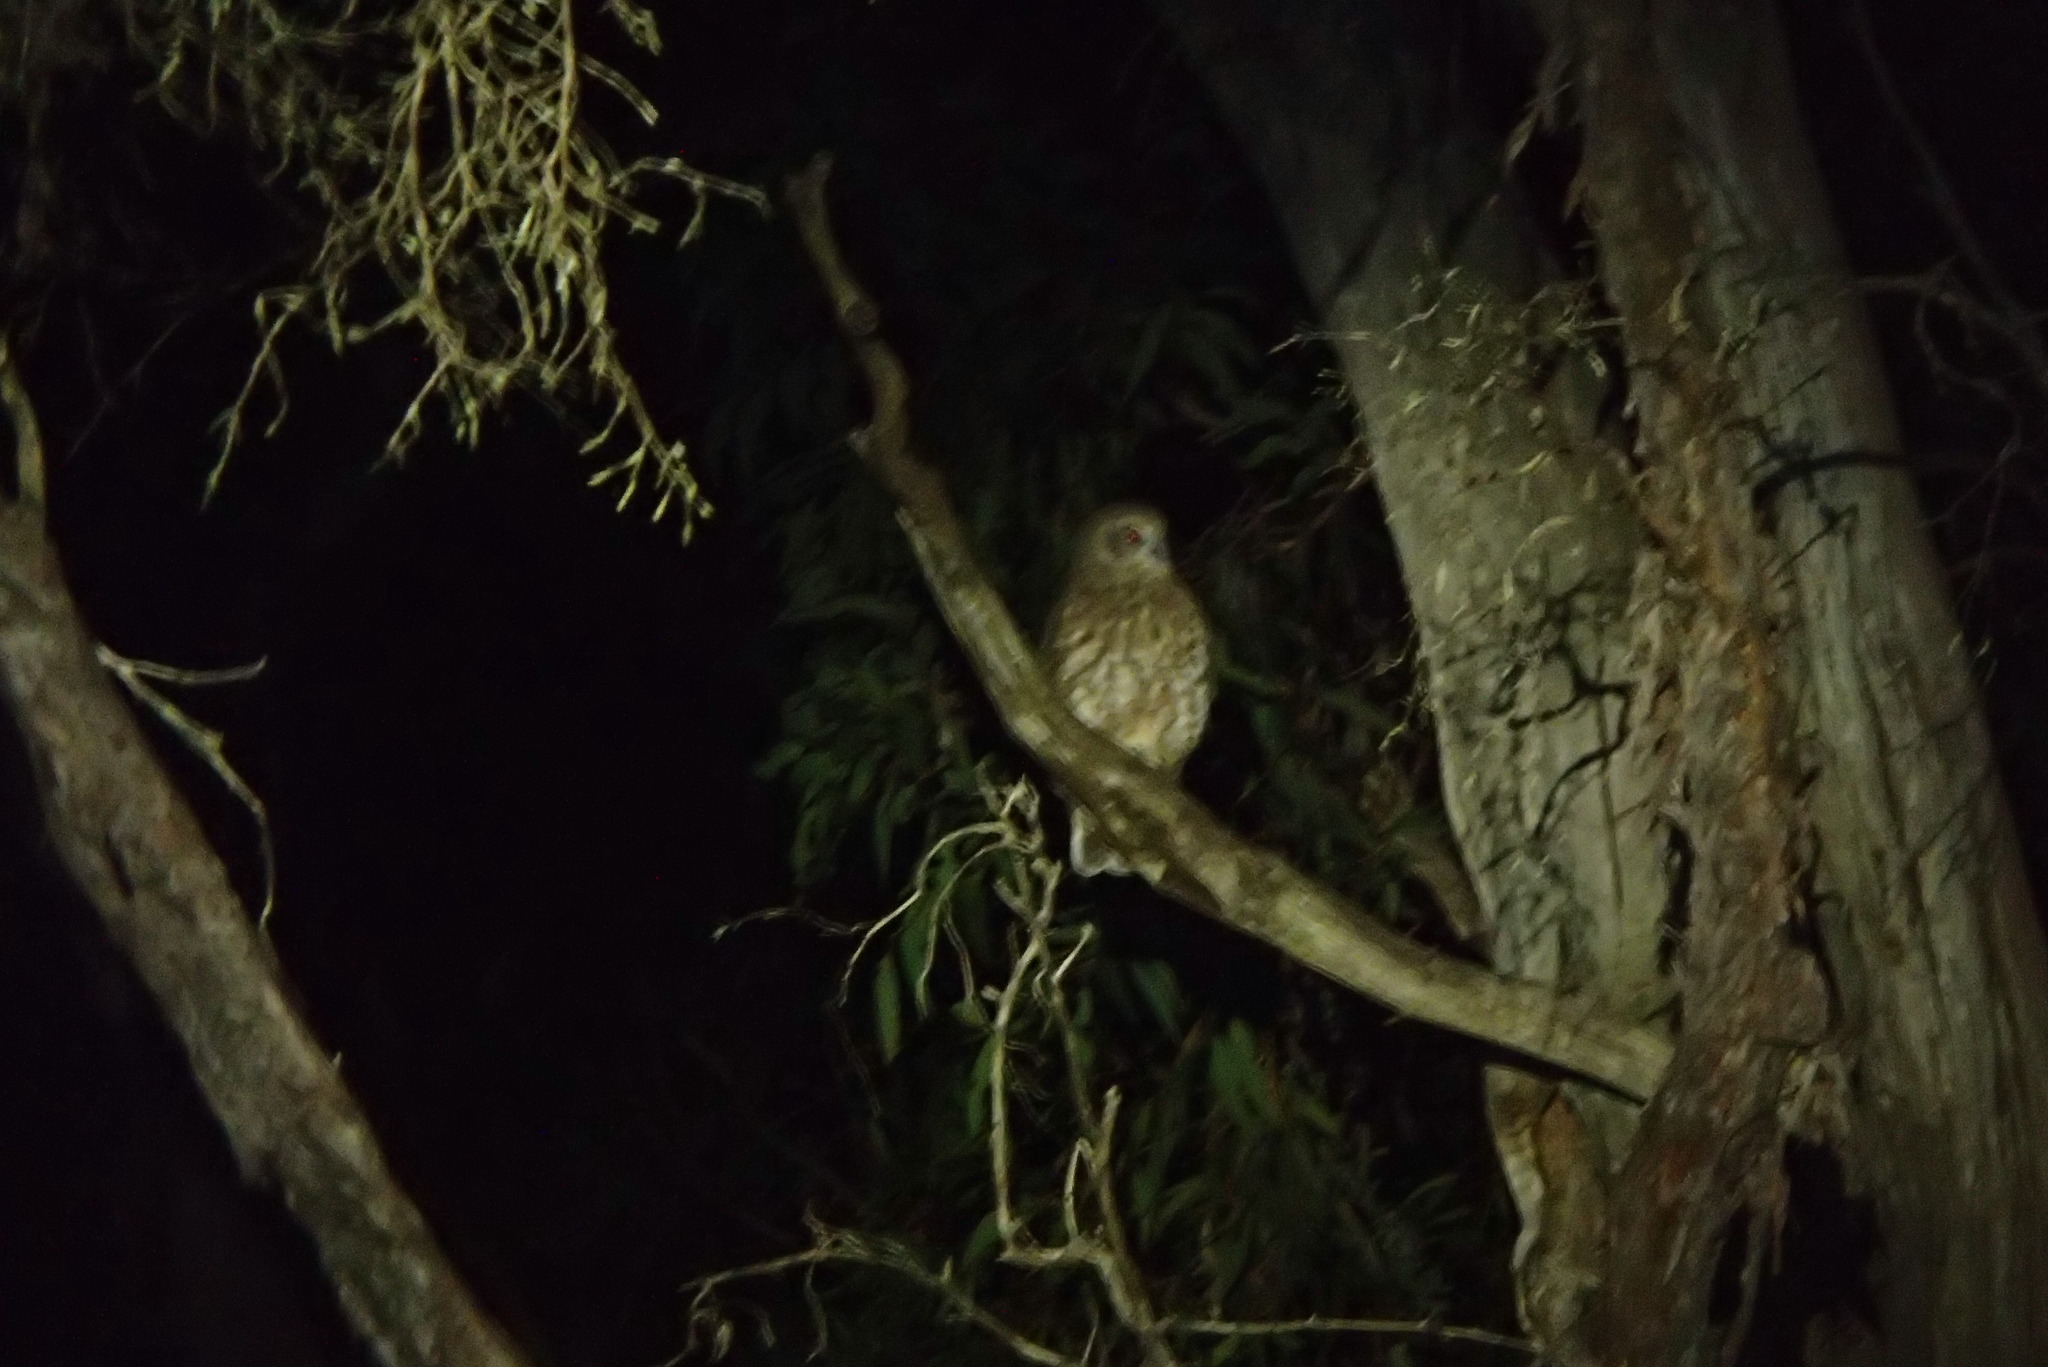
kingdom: Animalia
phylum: Chordata
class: Aves
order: Strigiformes
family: Strigidae
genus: Ninox
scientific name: Ninox boobook
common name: Southern boobook
